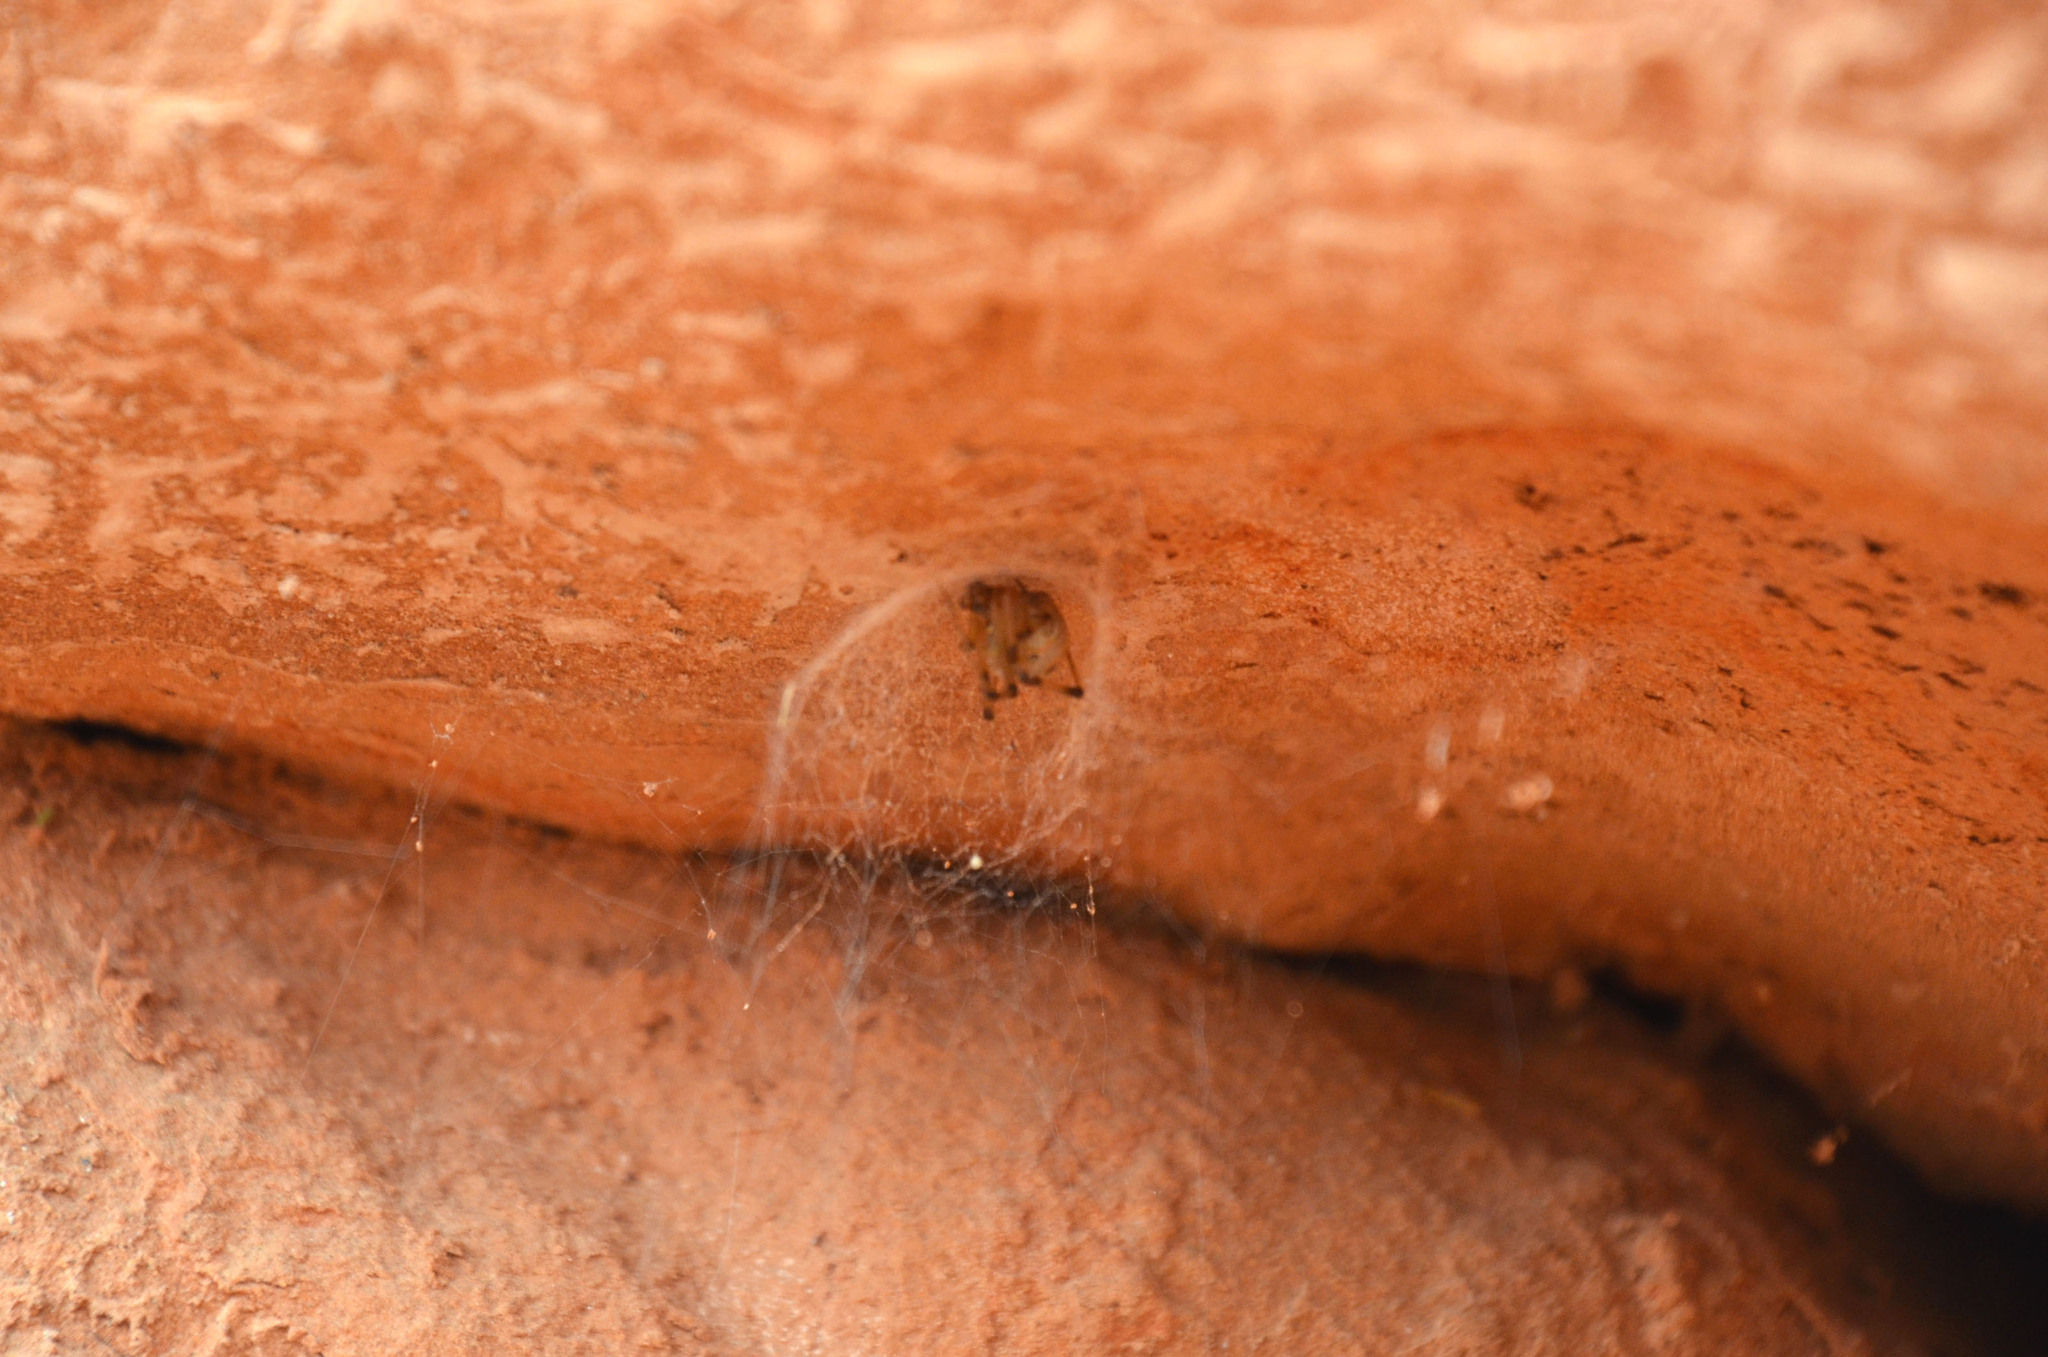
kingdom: Animalia
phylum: Arthropoda
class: Arachnida
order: Araneae
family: Theridiidae
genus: Latrodectus
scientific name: Latrodectus geometricus
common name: Brown widow spider
